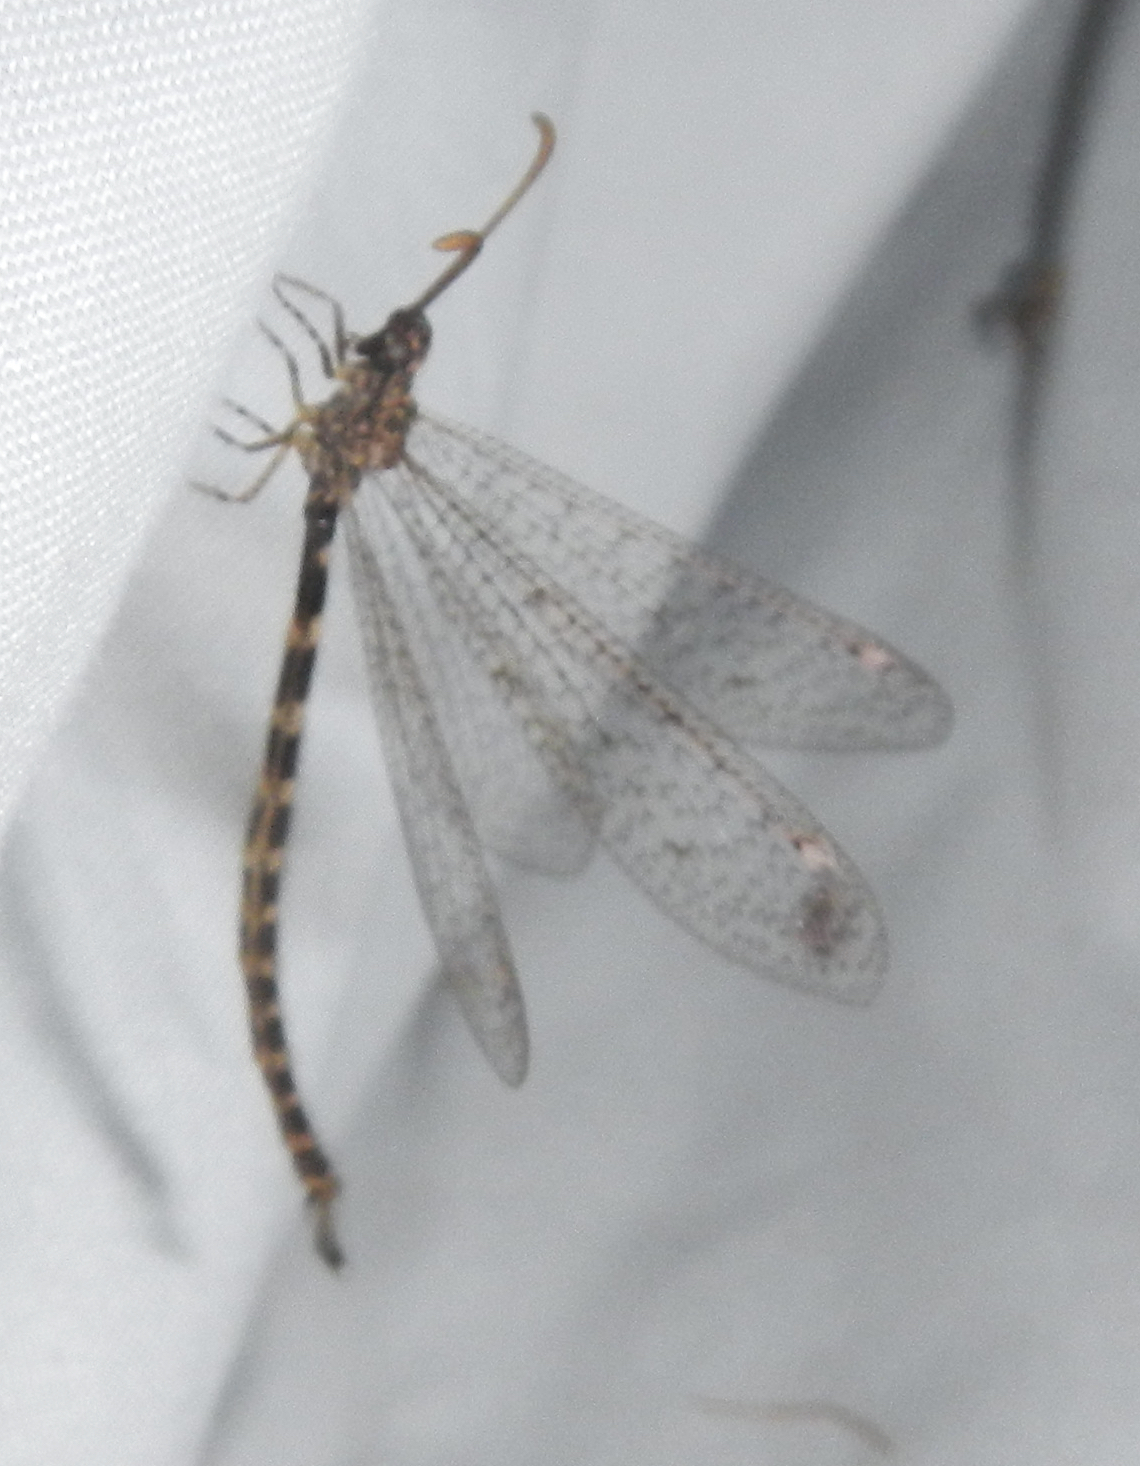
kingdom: Animalia
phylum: Arthropoda
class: Insecta
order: Neuroptera
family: Myrmeleontidae
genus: Brachynemurus
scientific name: Brachynemurus sackeni
